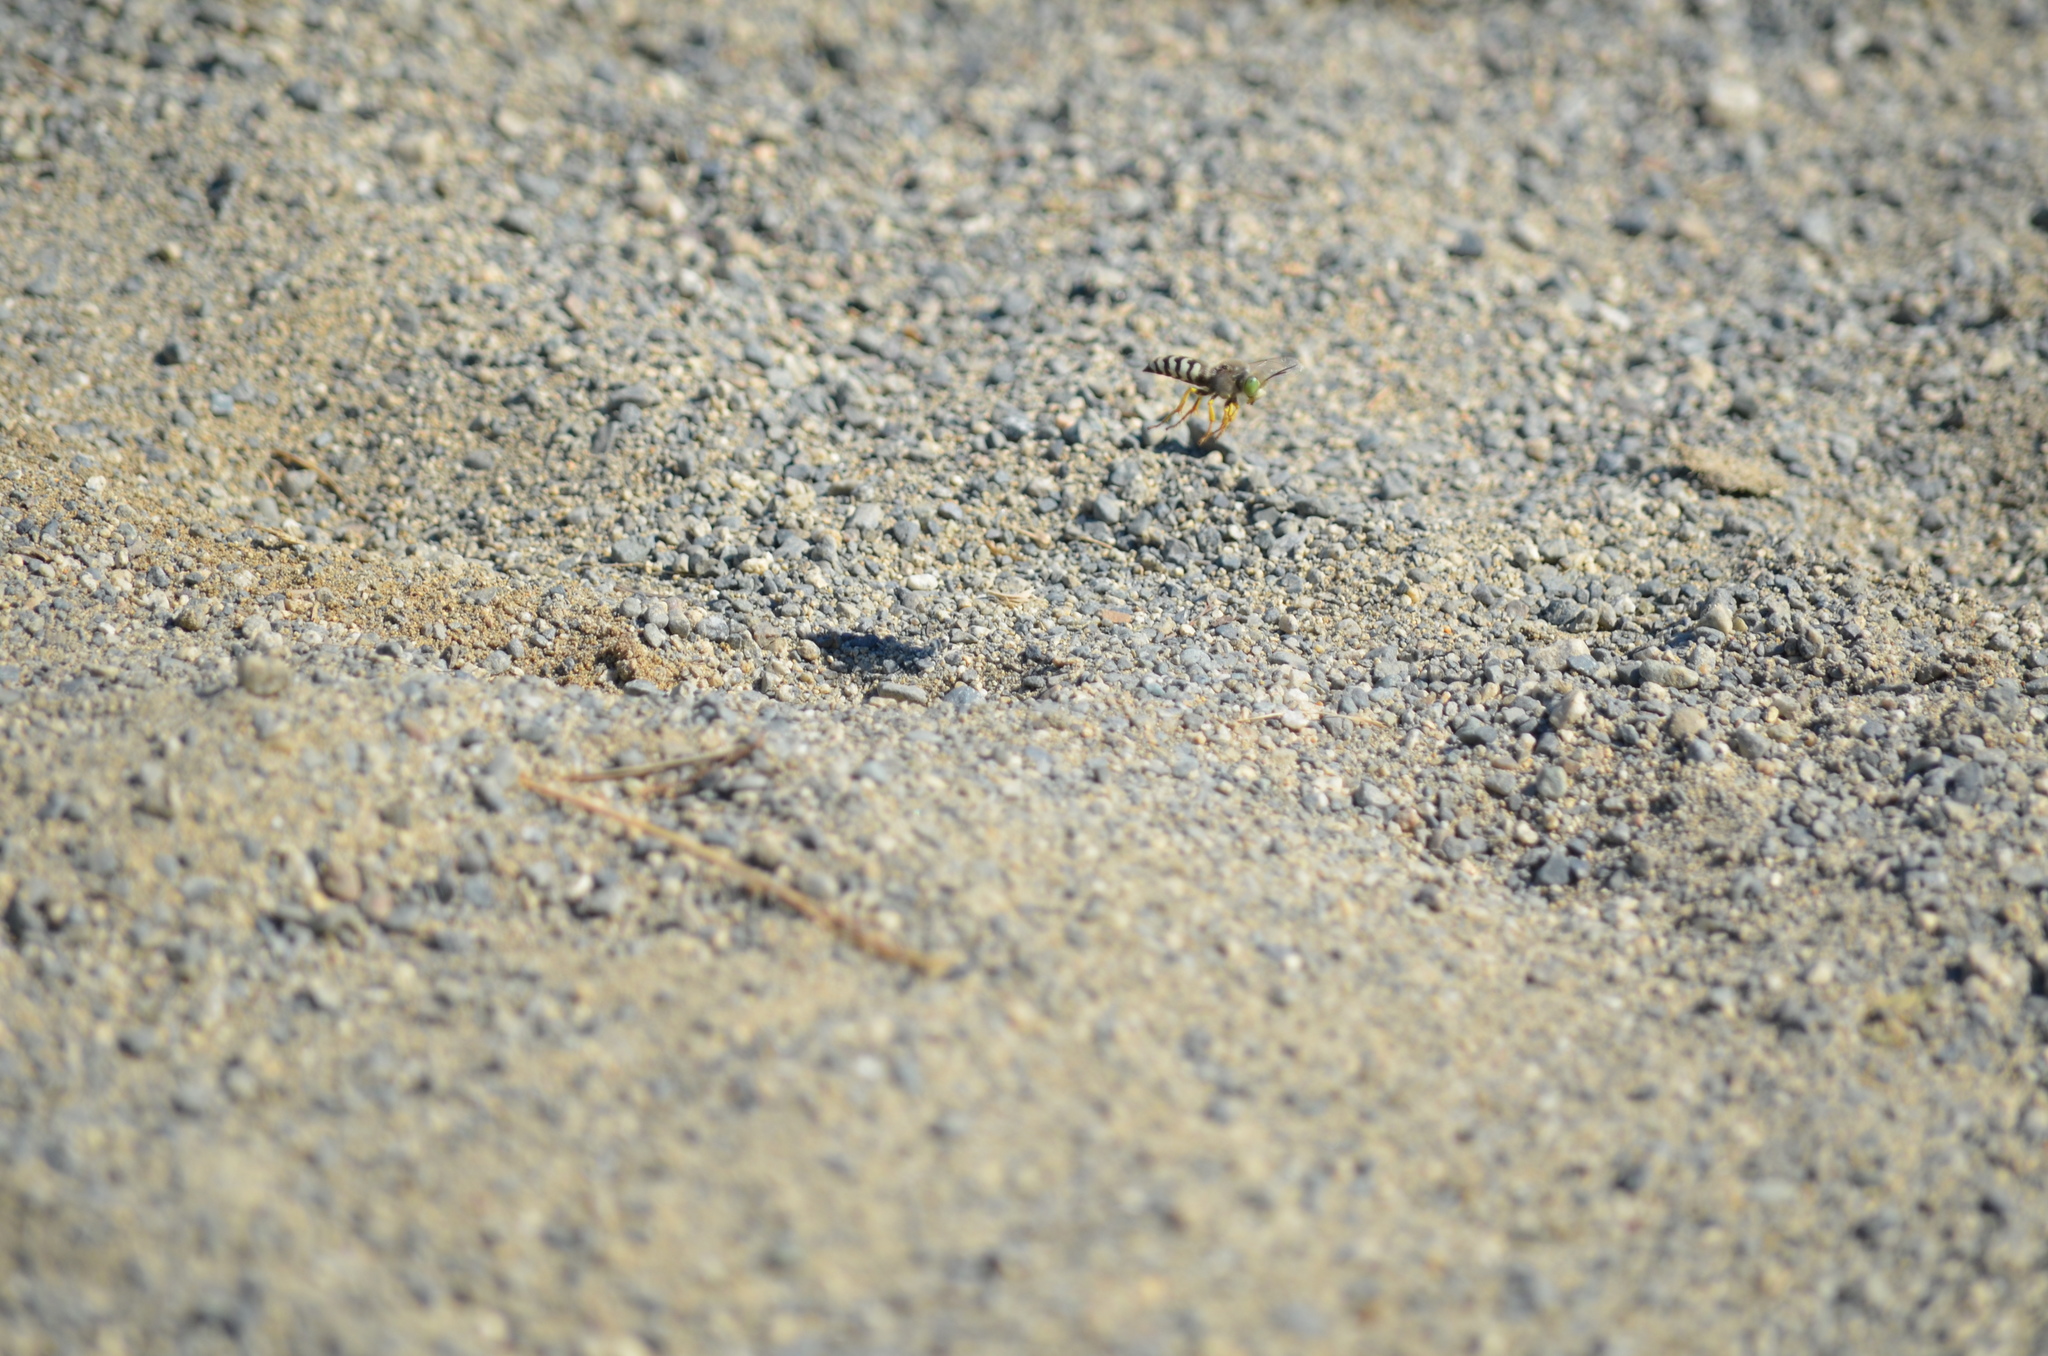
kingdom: Animalia
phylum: Arthropoda
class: Insecta
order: Hymenoptera
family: Crabronidae
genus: Bembix
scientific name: Bembix americana
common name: American sand wasp
